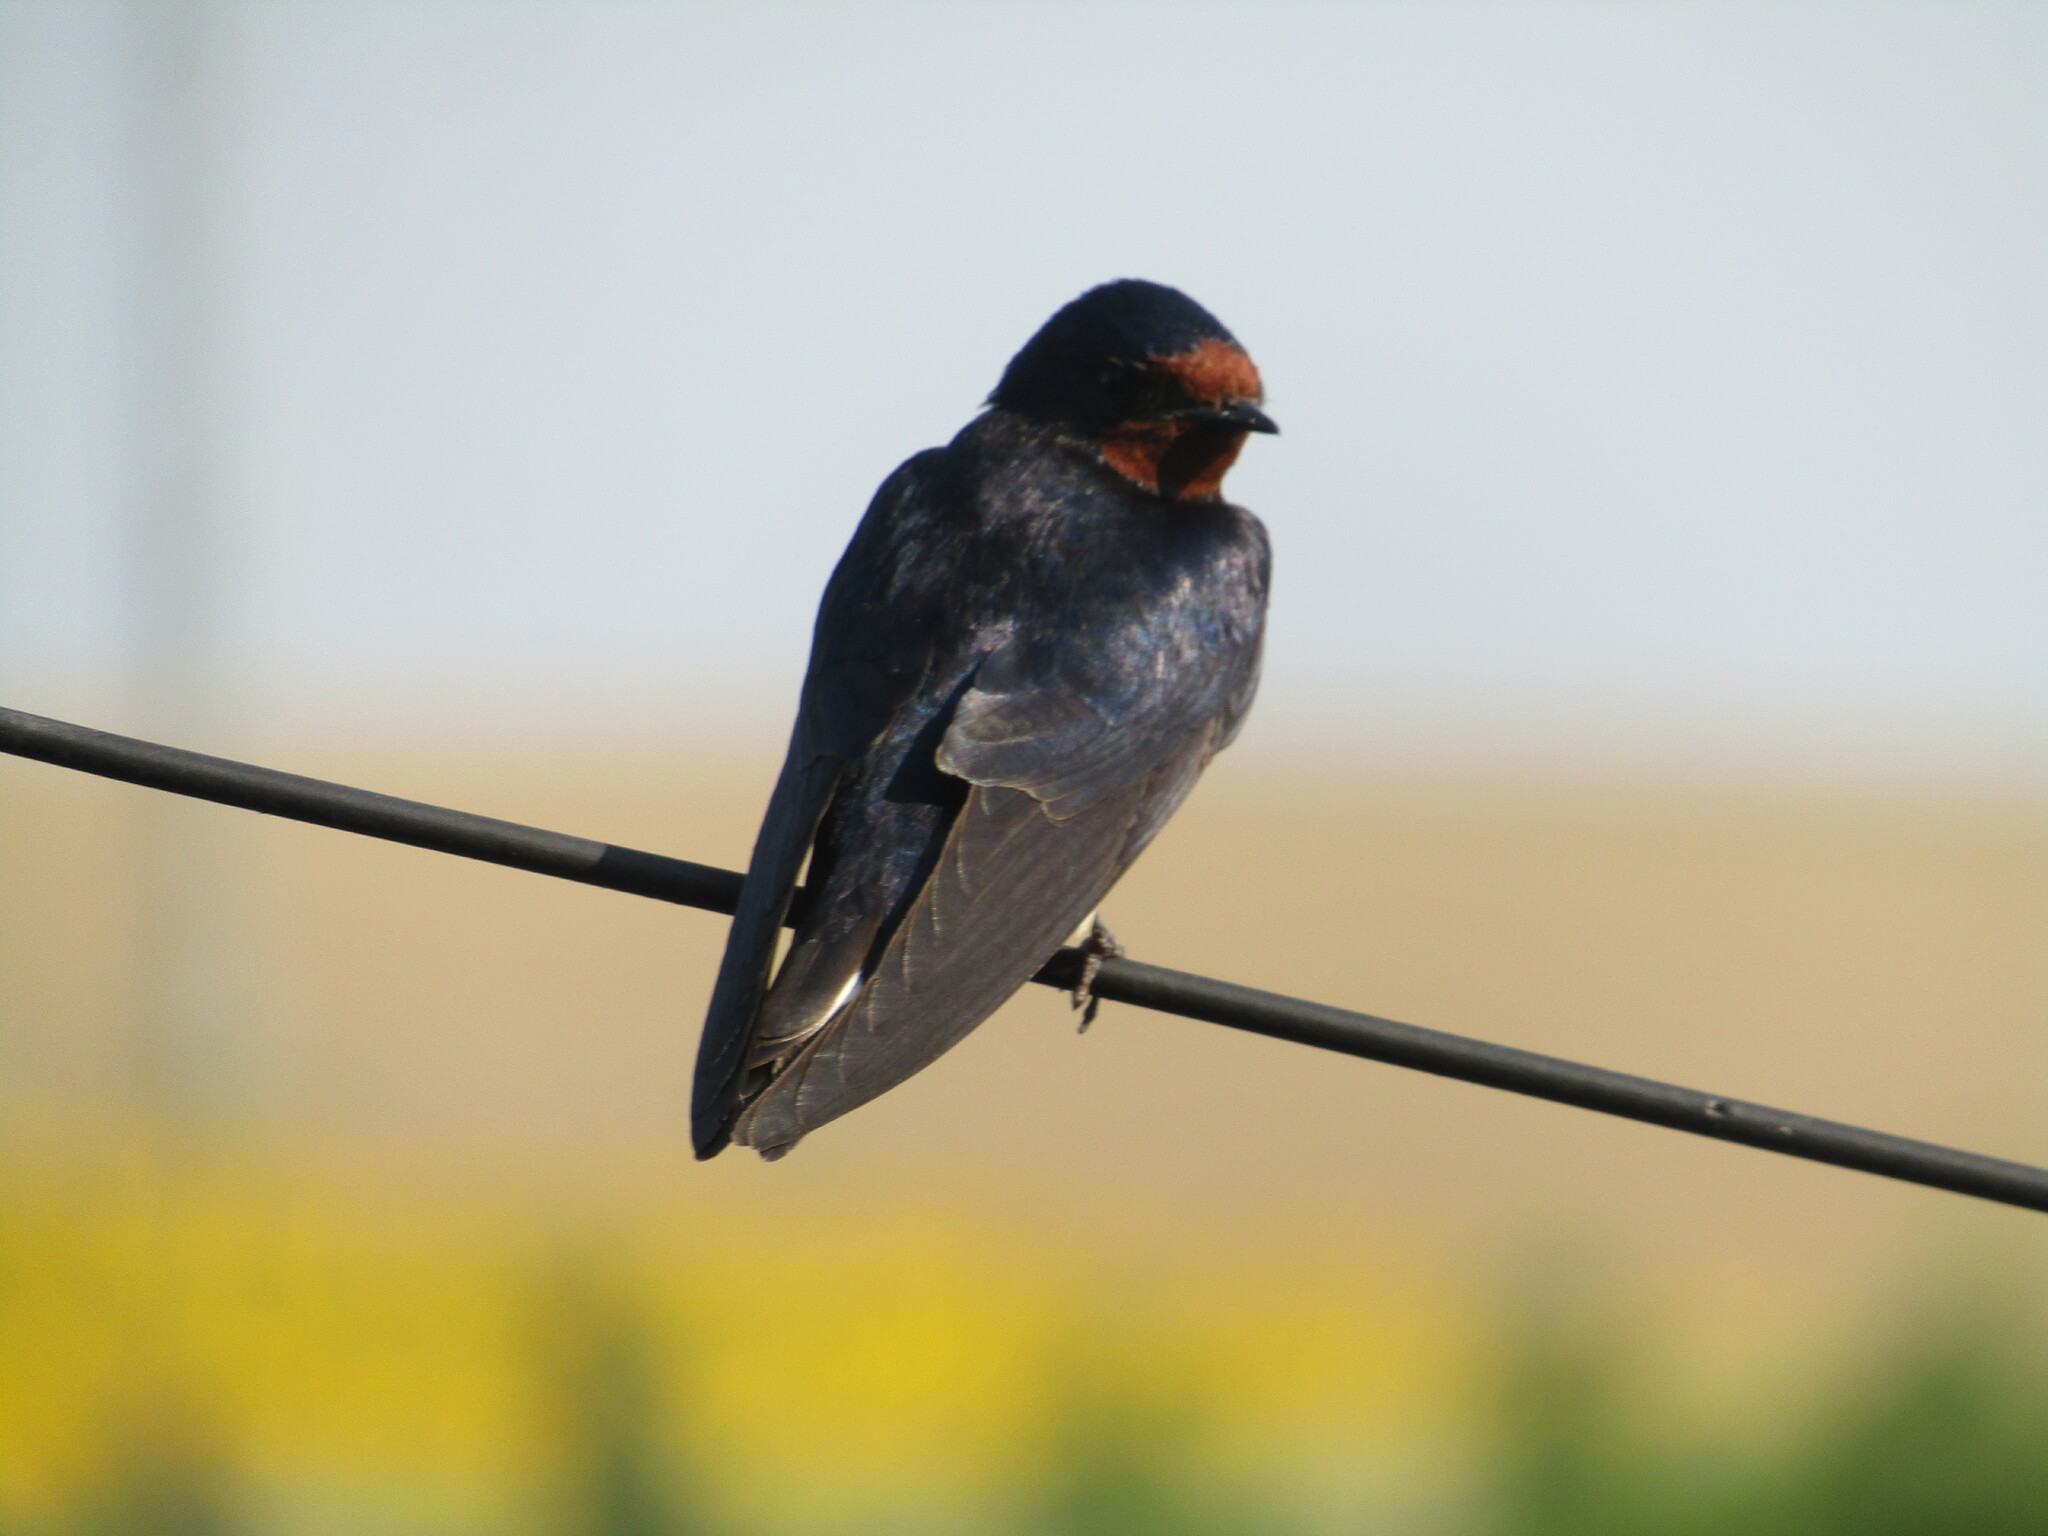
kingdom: Animalia
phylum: Chordata
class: Aves
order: Passeriformes
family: Hirundinidae
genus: Hirundo
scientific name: Hirundo rustica
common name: Barn swallow
